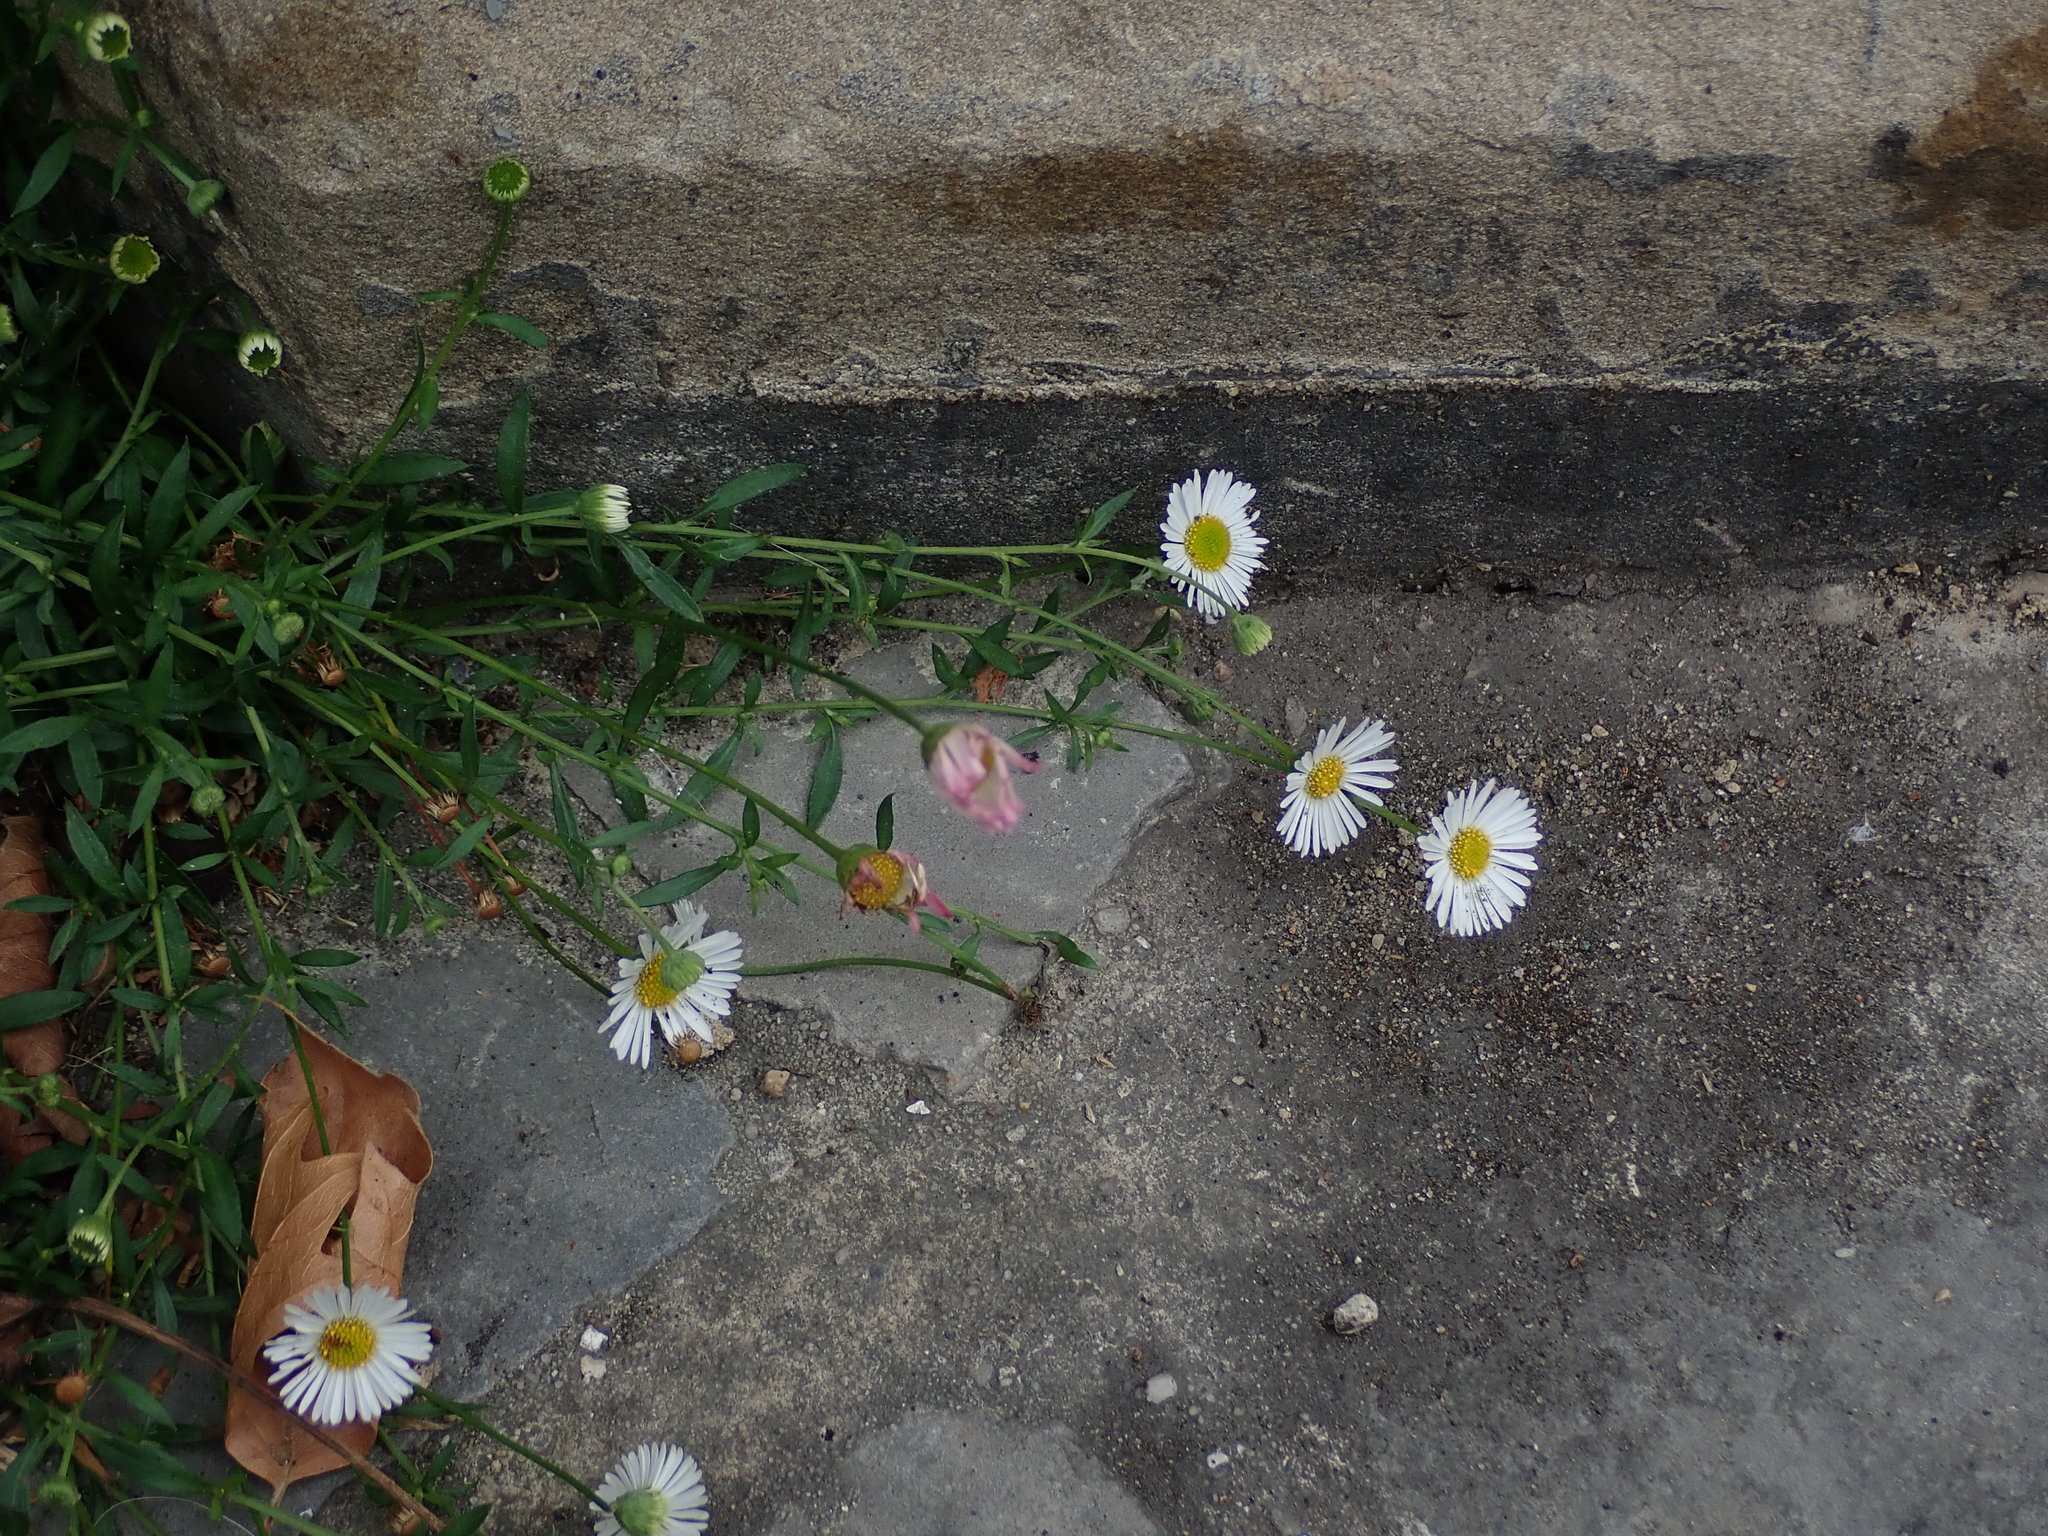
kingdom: Plantae
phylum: Tracheophyta
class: Magnoliopsida
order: Asterales
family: Asteraceae
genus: Erigeron
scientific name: Erigeron karvinskianus
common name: Mexican fleabane
